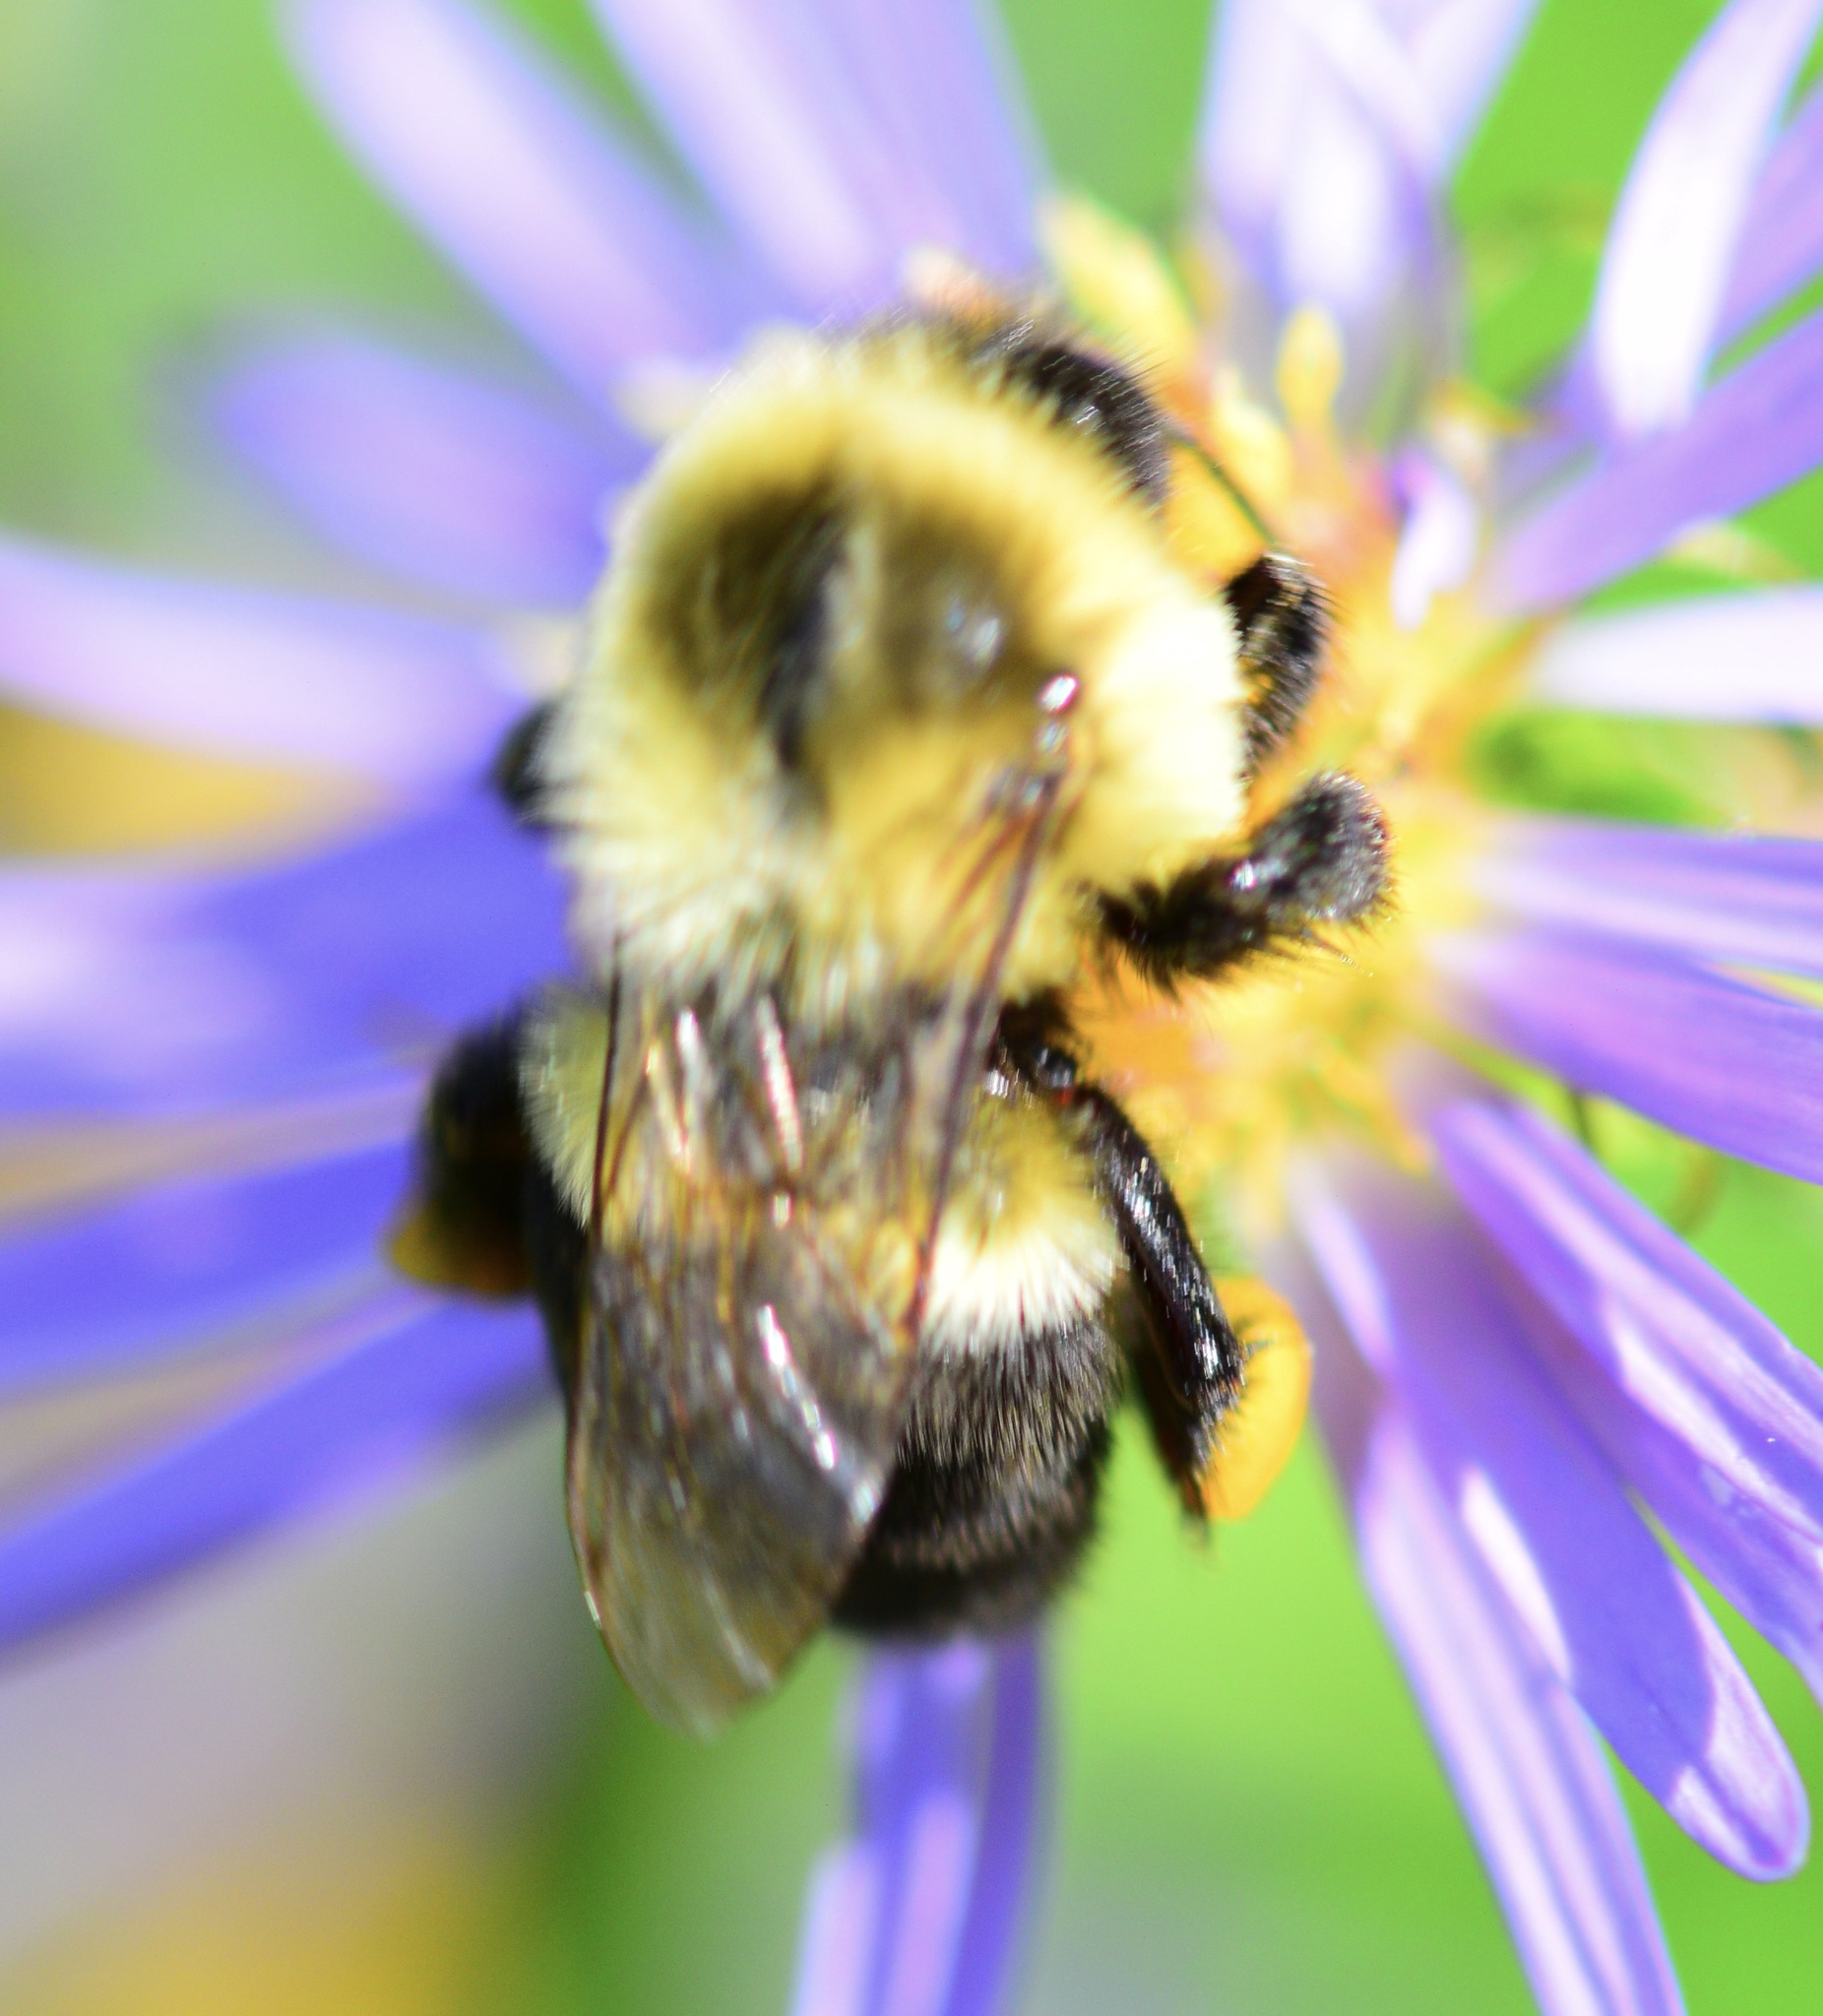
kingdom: Animalia
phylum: Arthropoda
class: Insecta
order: Hymenoptera
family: Apidae
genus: Bombus
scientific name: Bombus impatiens
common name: Common eastern bumble bee
